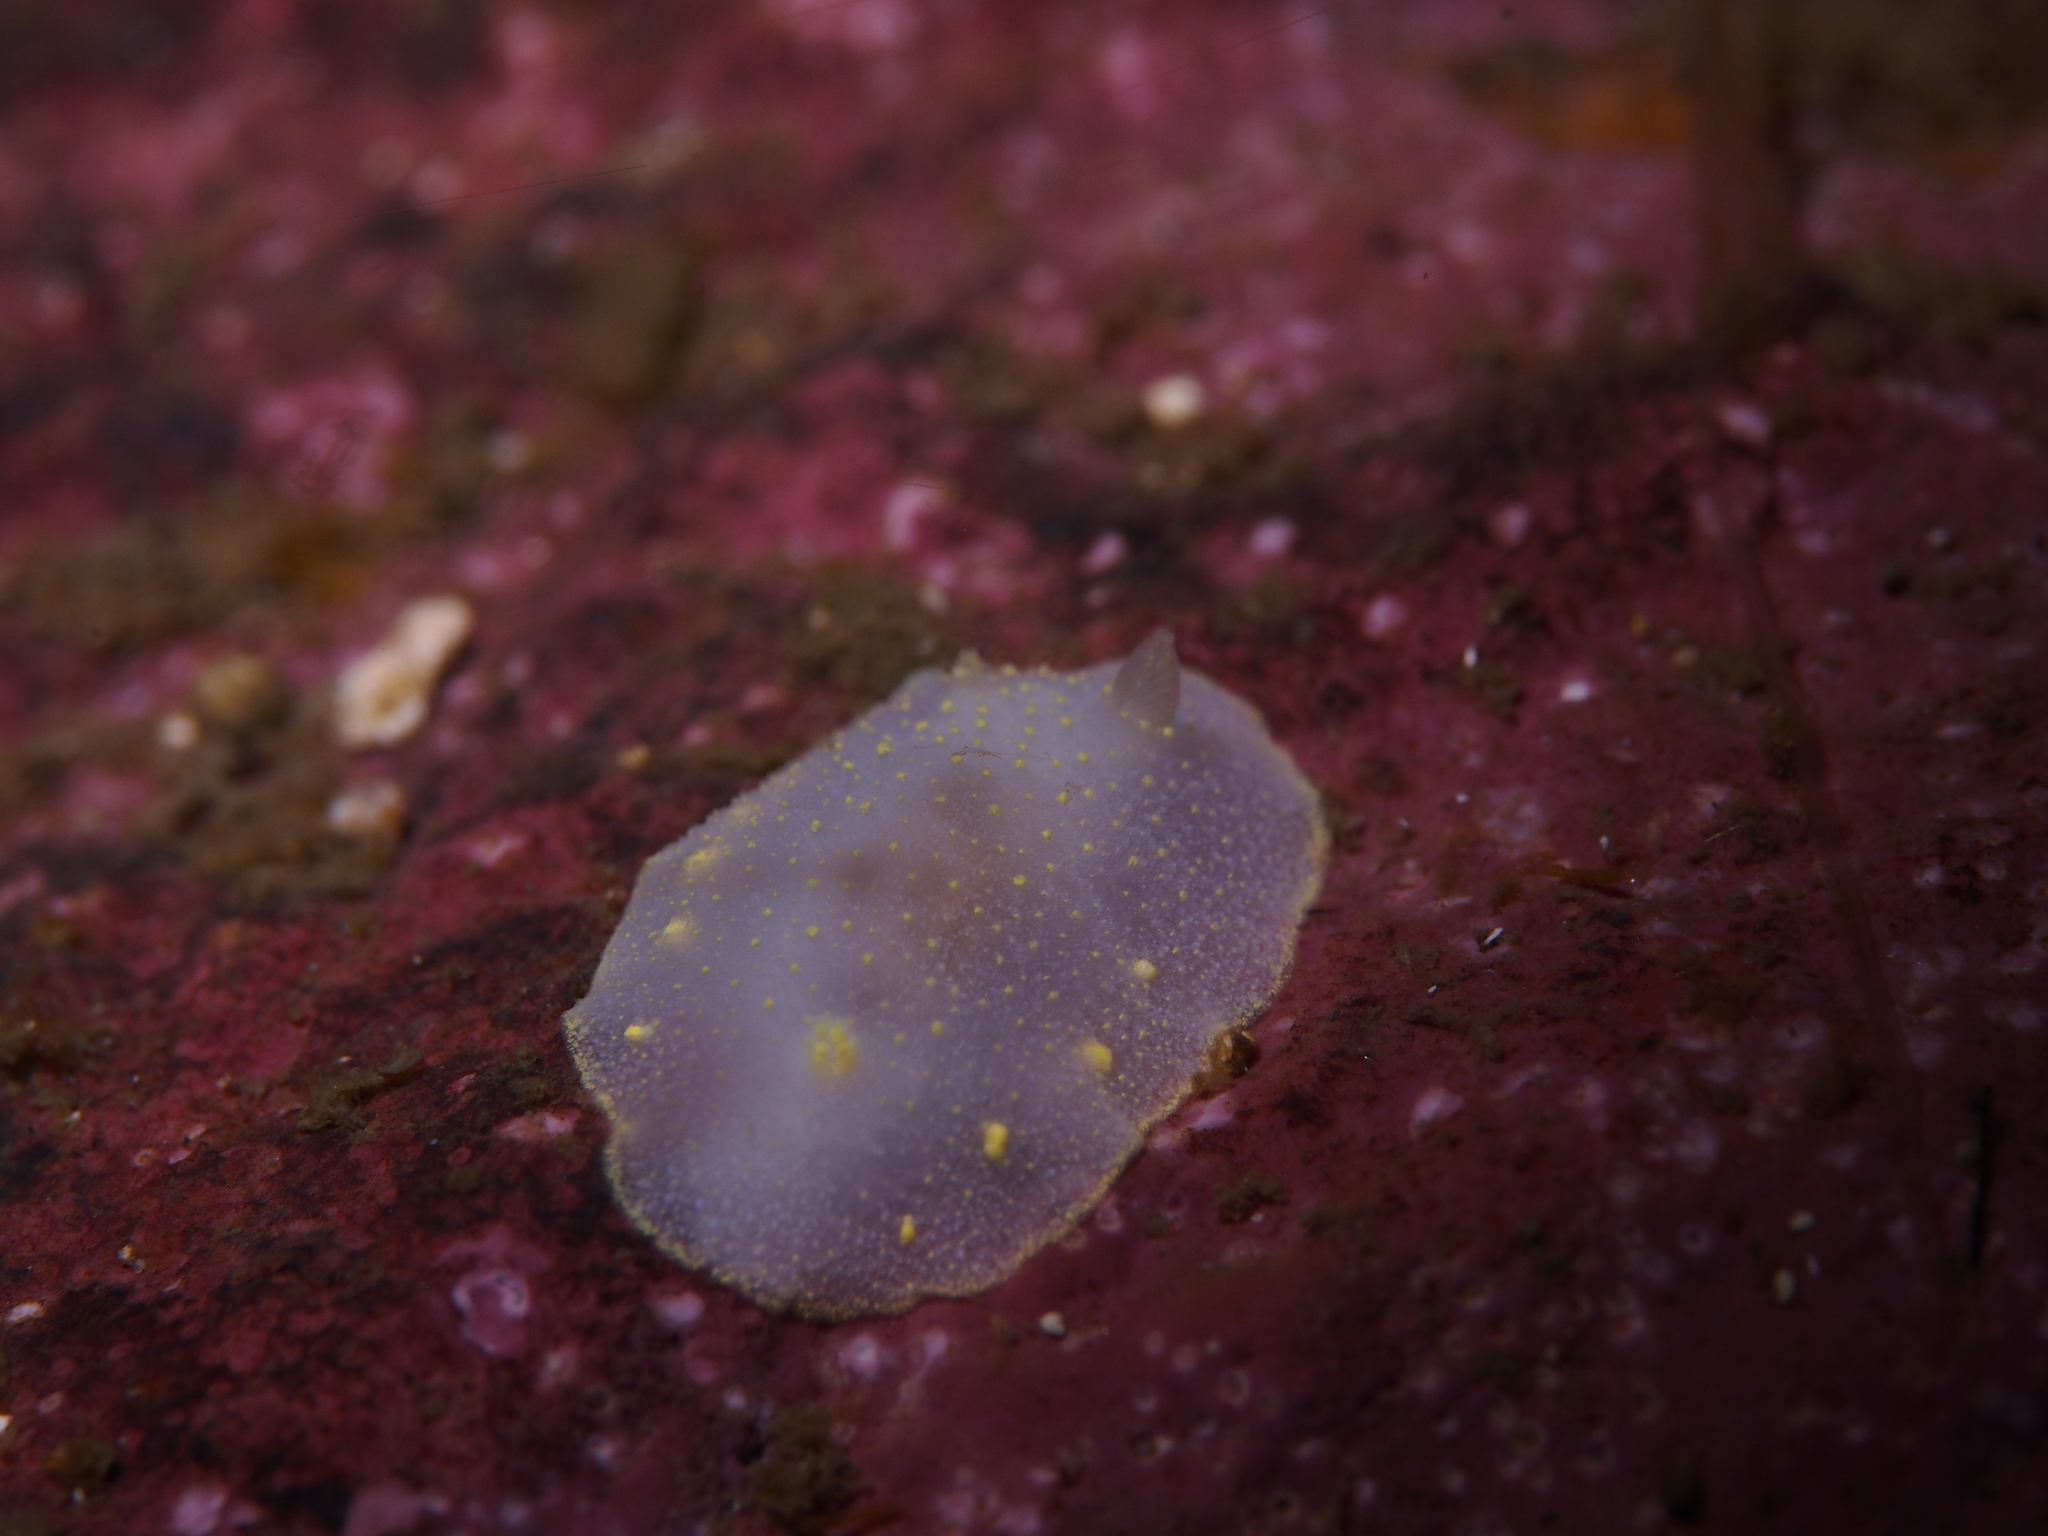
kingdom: Animalia
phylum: Mollusca
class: Gastropoda
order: Nudibranchia
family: Cadlinidae
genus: Cadlina
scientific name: Cadlina laevis
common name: White atlantic cadlina
